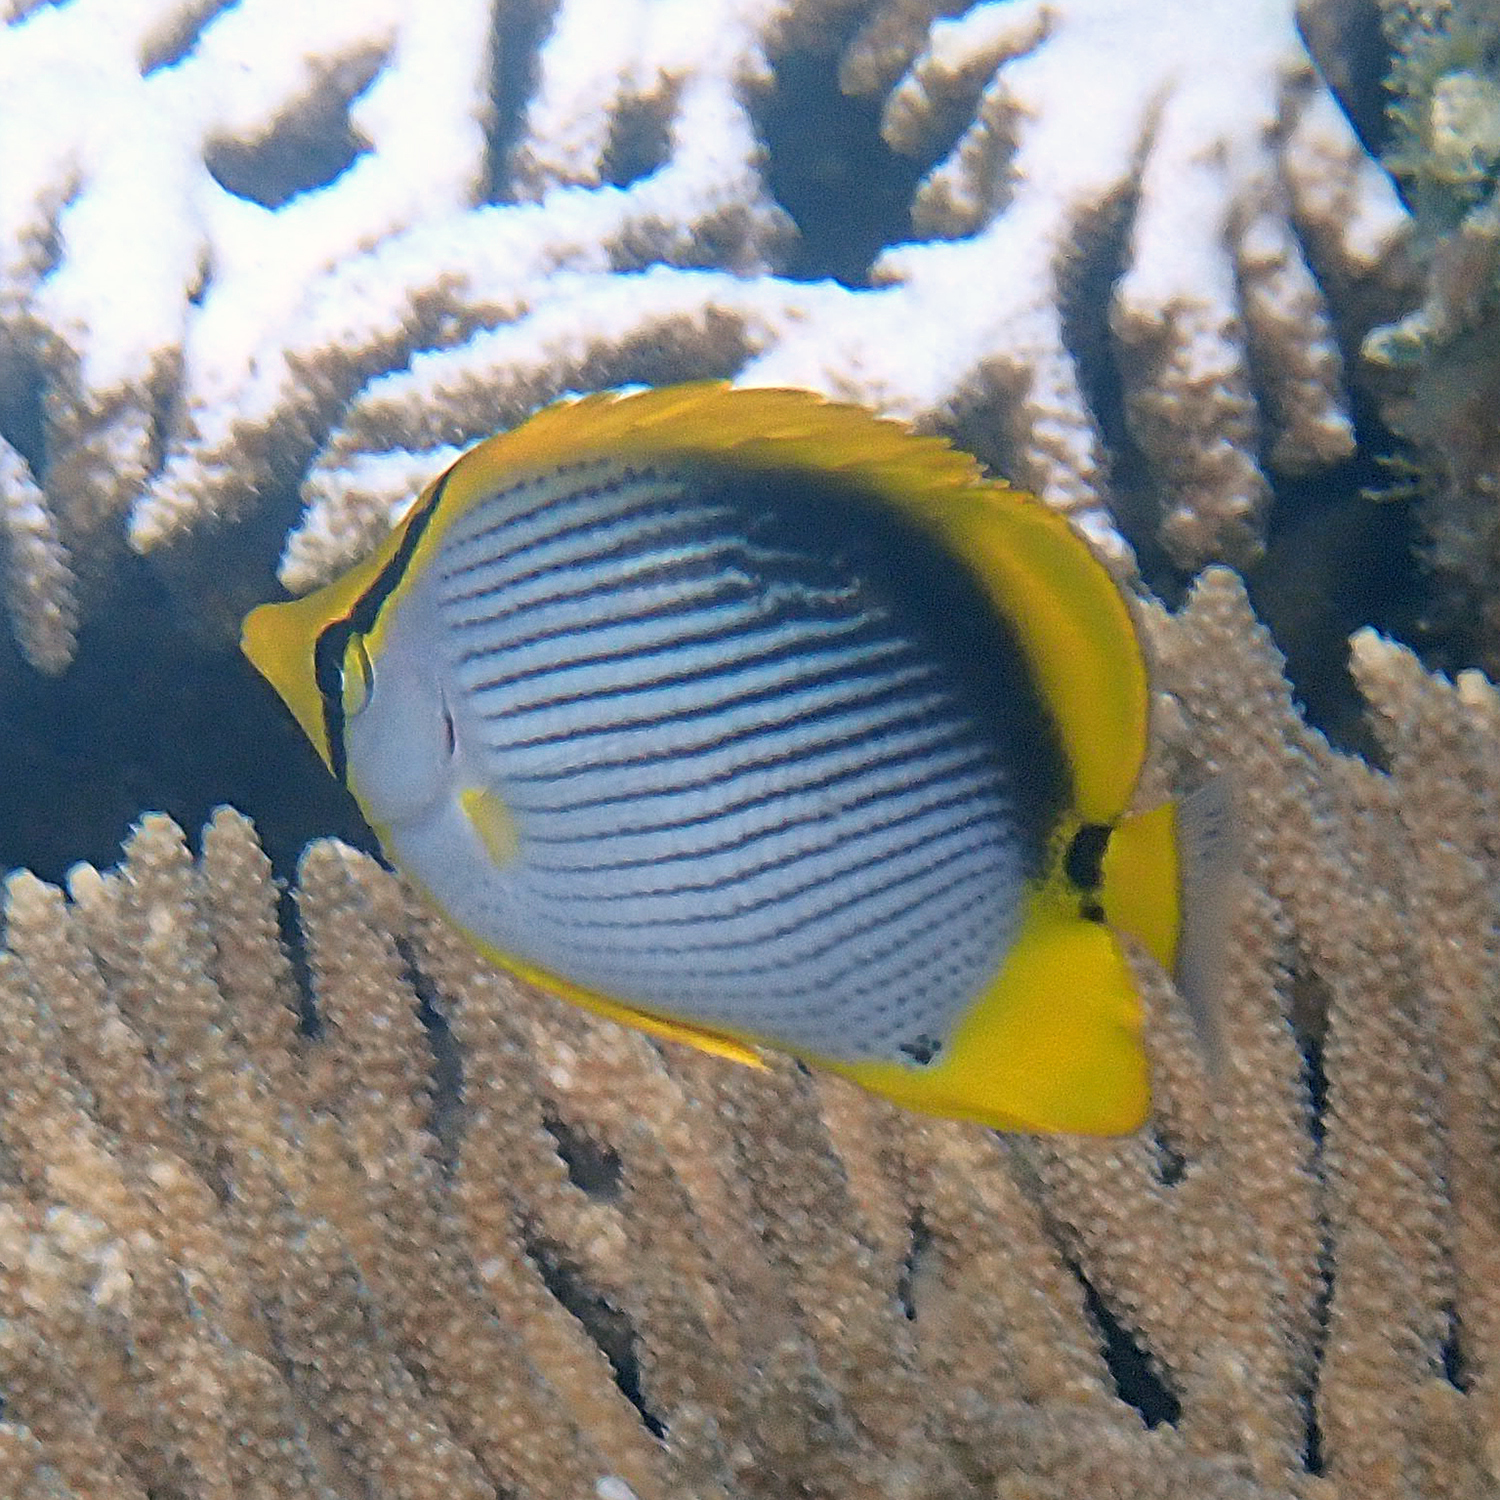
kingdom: Animalia
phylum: Chordata
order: Perciformes
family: Chaetodontidae
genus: Chaetodon
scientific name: Chaetodon melannotus
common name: Blackback butterflyfish
